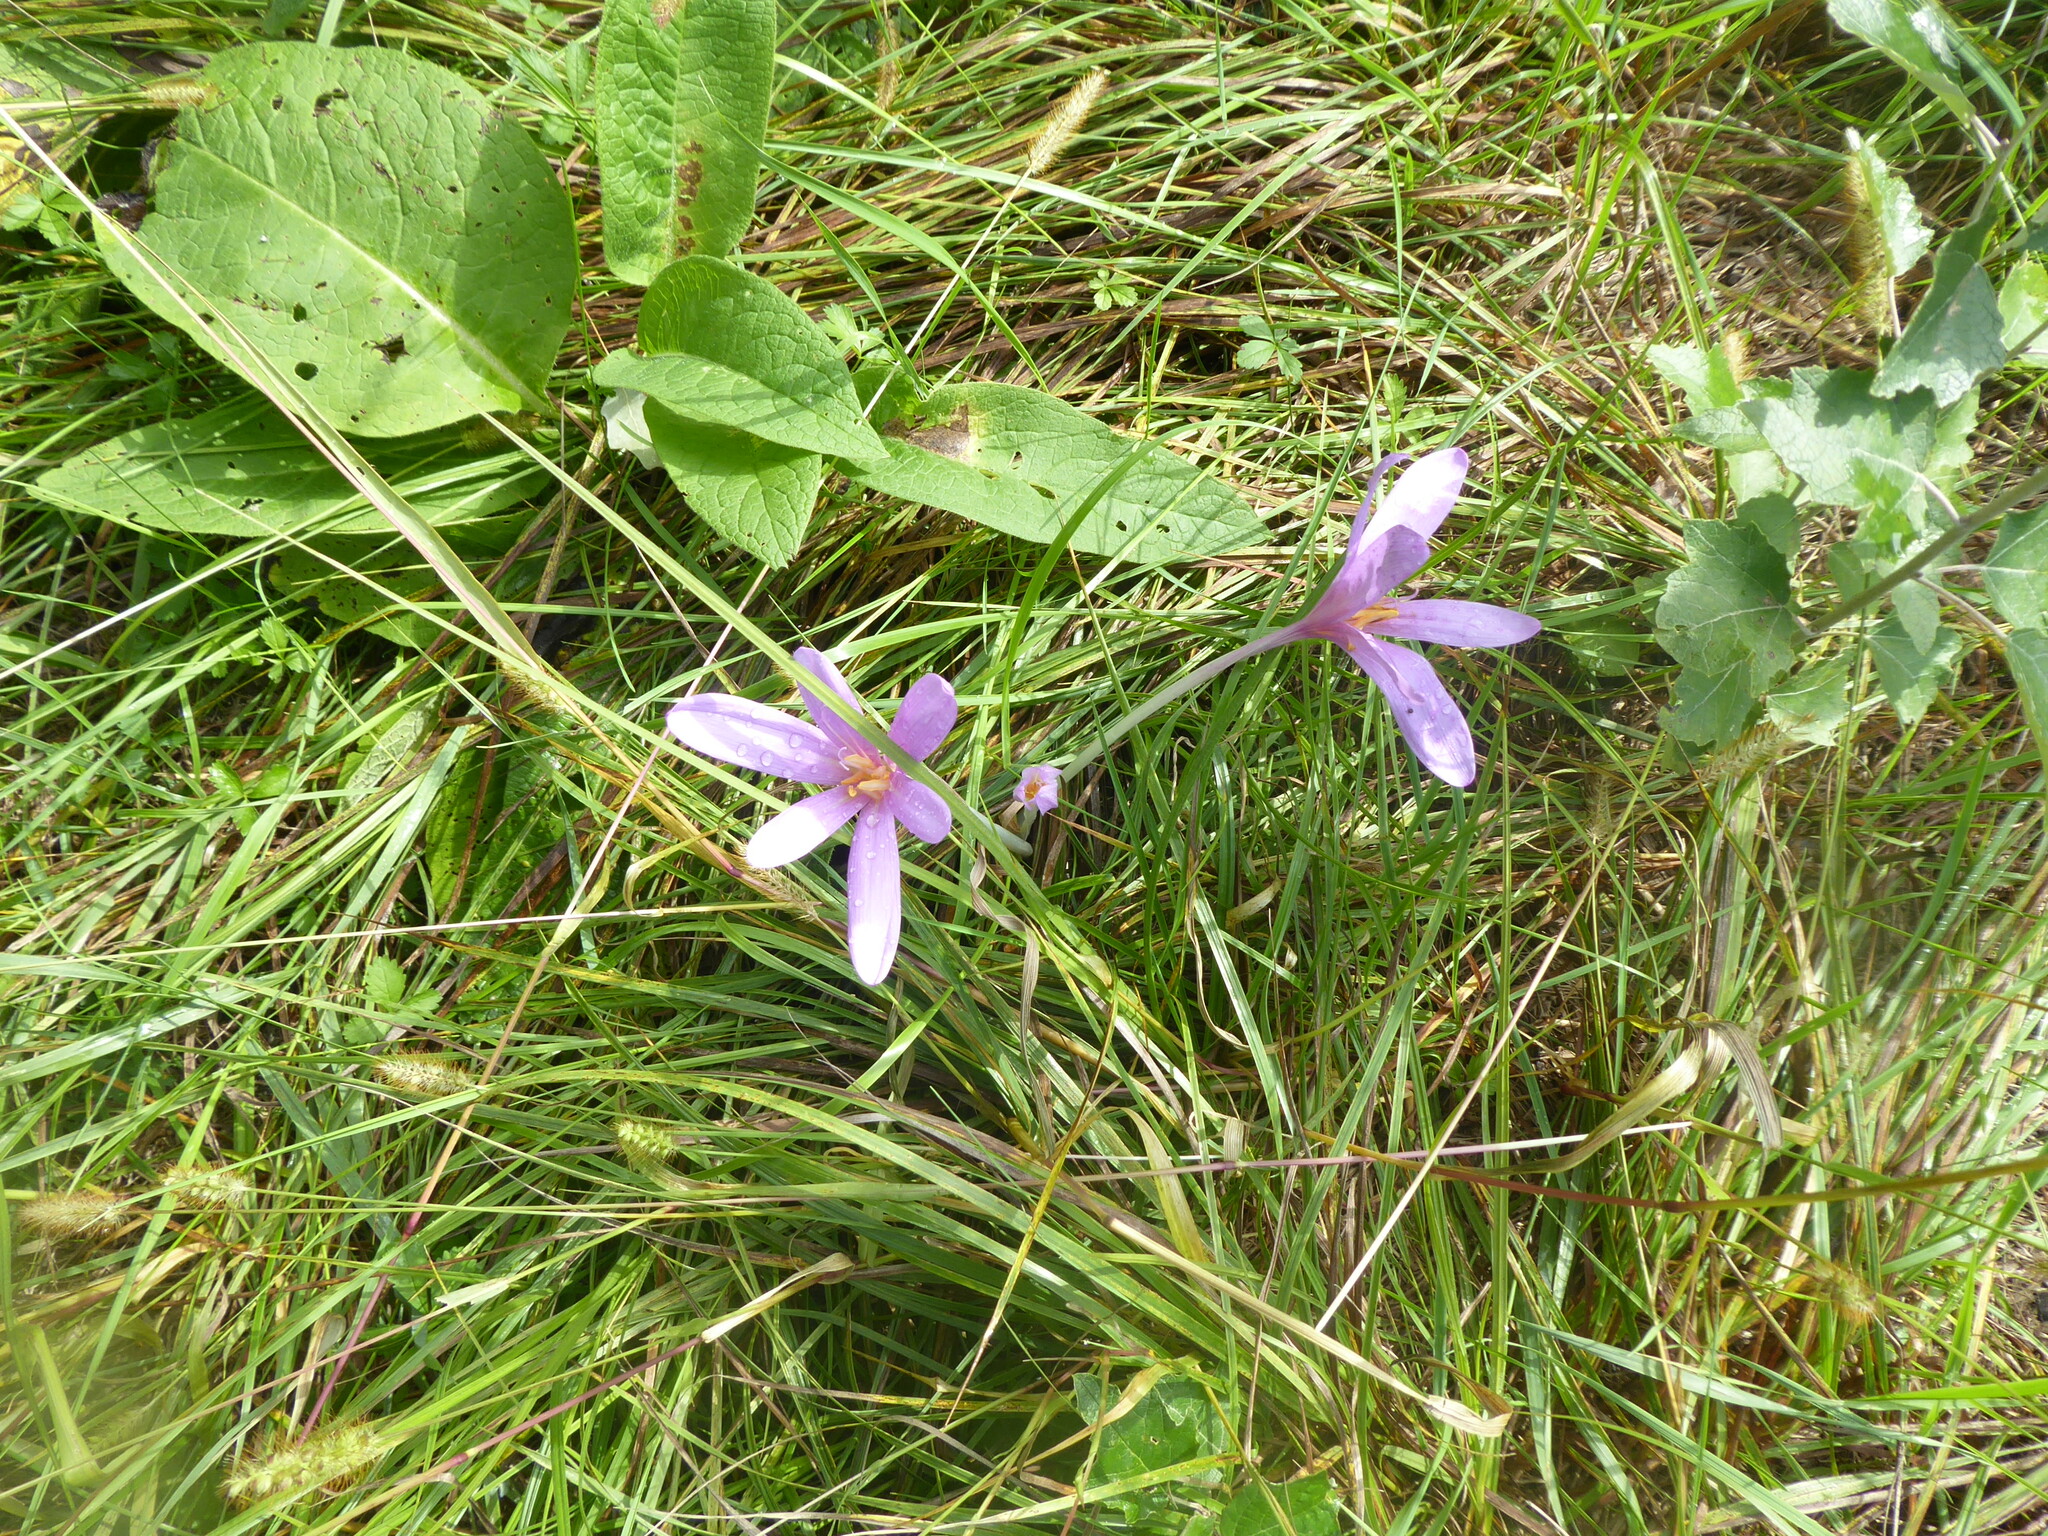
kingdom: Plantae
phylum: Tracheophyta
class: Liliopsida
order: Liliales
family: Colchicaceae
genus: Colchicum
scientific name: Colchicum autumnale
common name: Autumn crocus
